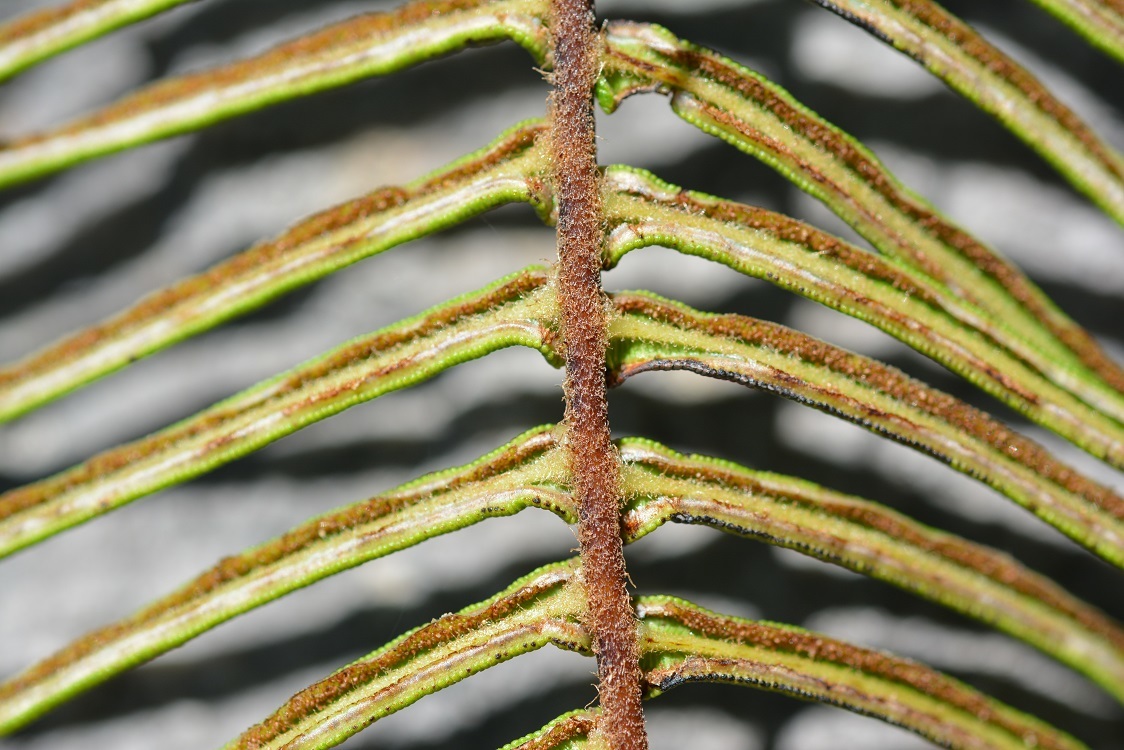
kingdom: Plantae
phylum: Tracheophyta
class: Polypodiopsida
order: Polypodiales
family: Pteridaceae
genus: Pteris
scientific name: Pteris longifolia
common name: Longleaf brake
